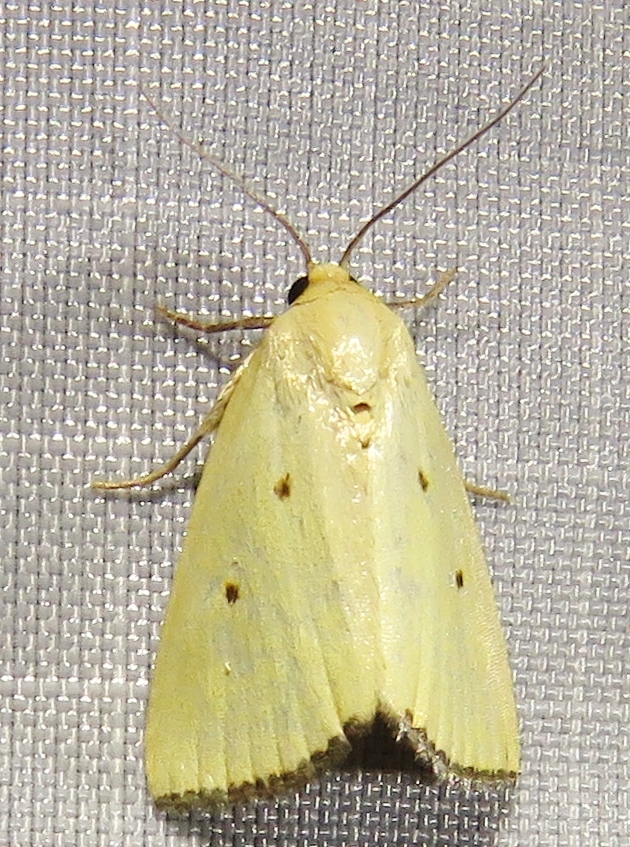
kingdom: Animalia
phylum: Arthropoda
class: Insecta
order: Lepidoptera
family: Noctuidae
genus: Marimatha
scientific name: Marimatha nigrofimbria
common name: Black-bordered lemon moth
